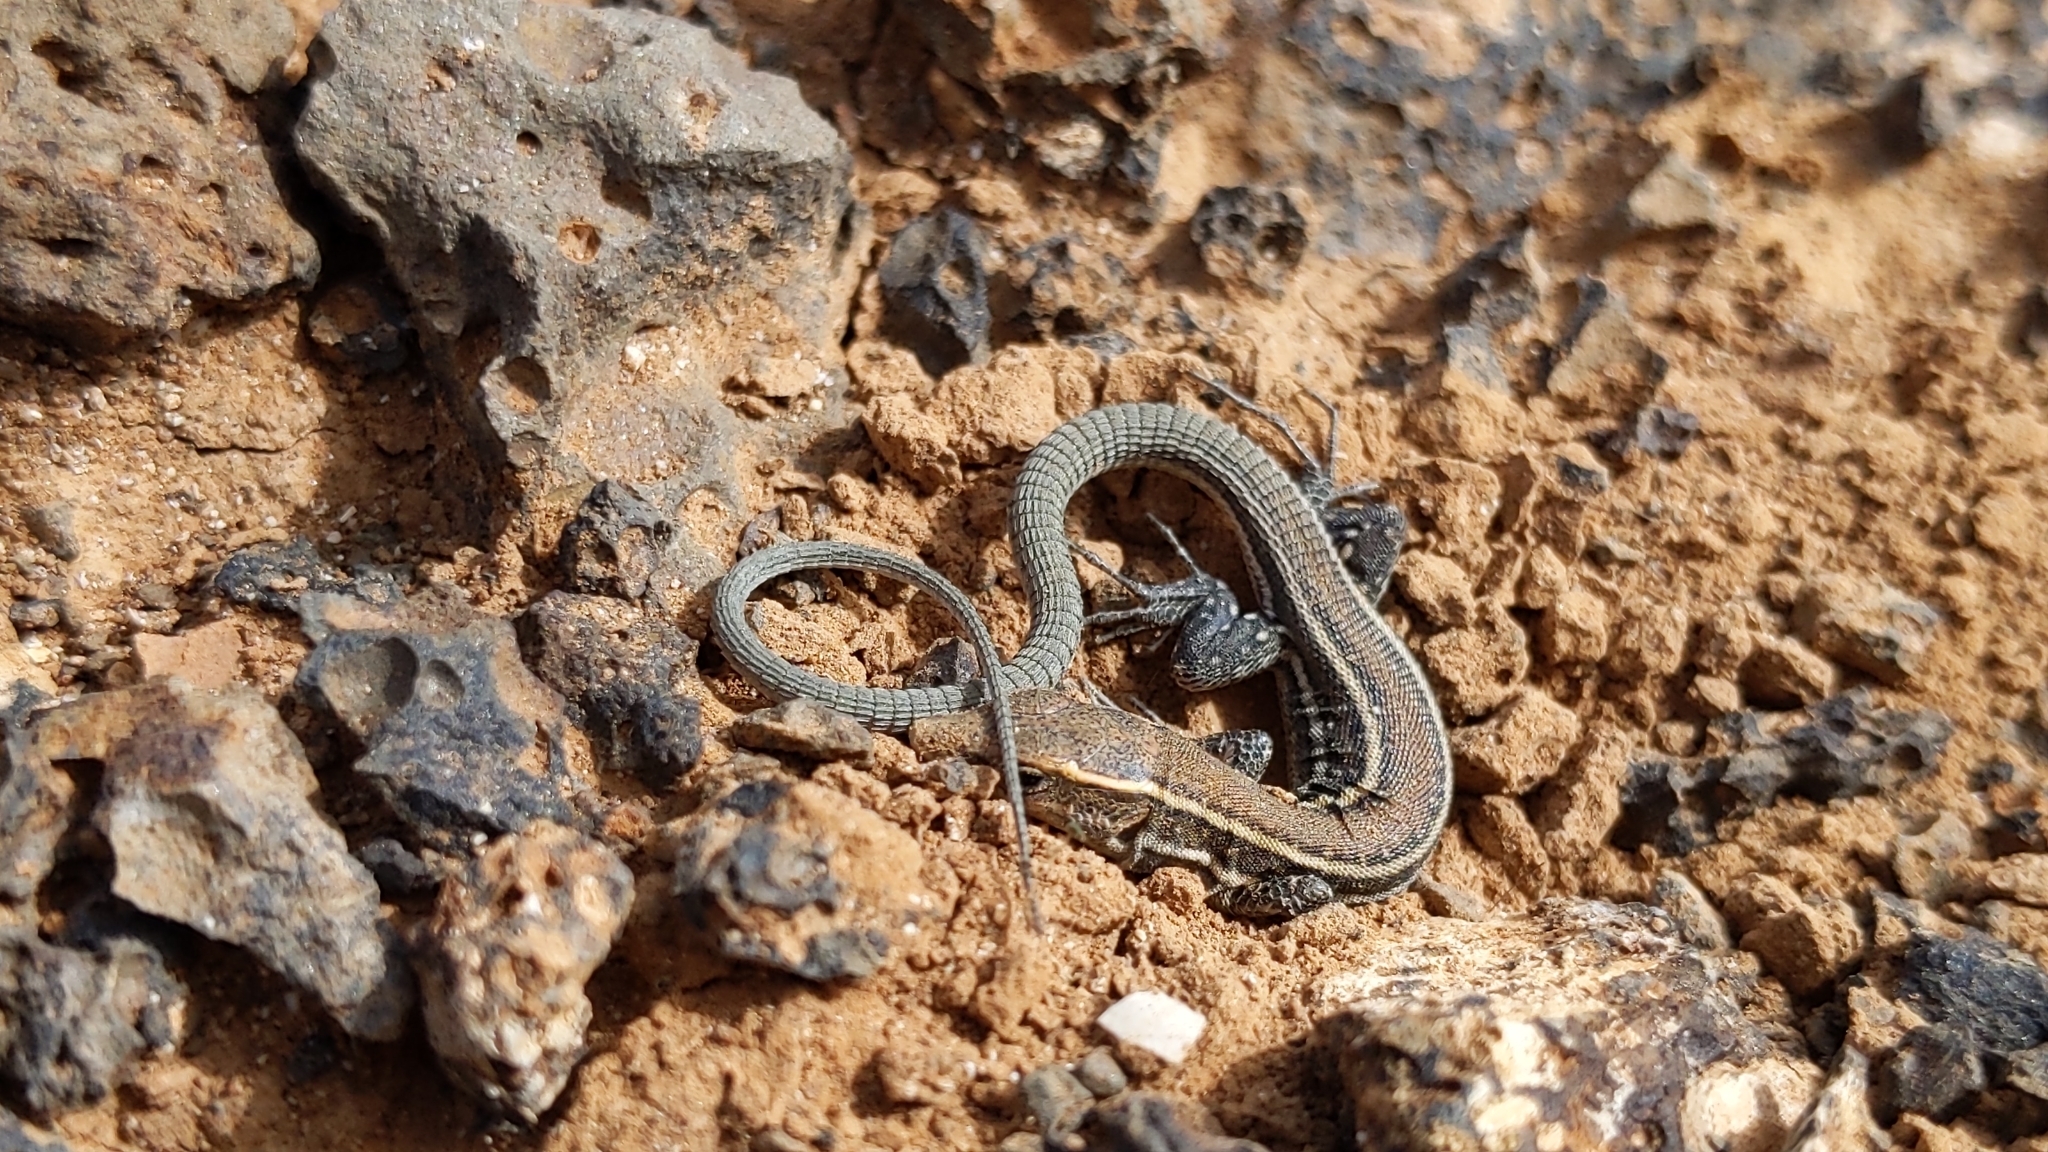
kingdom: Animalia
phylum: Chordata
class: Squamata
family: Lacertidae
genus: Gallotia
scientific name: Gallotia atlantica
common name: Atlantic lizard
